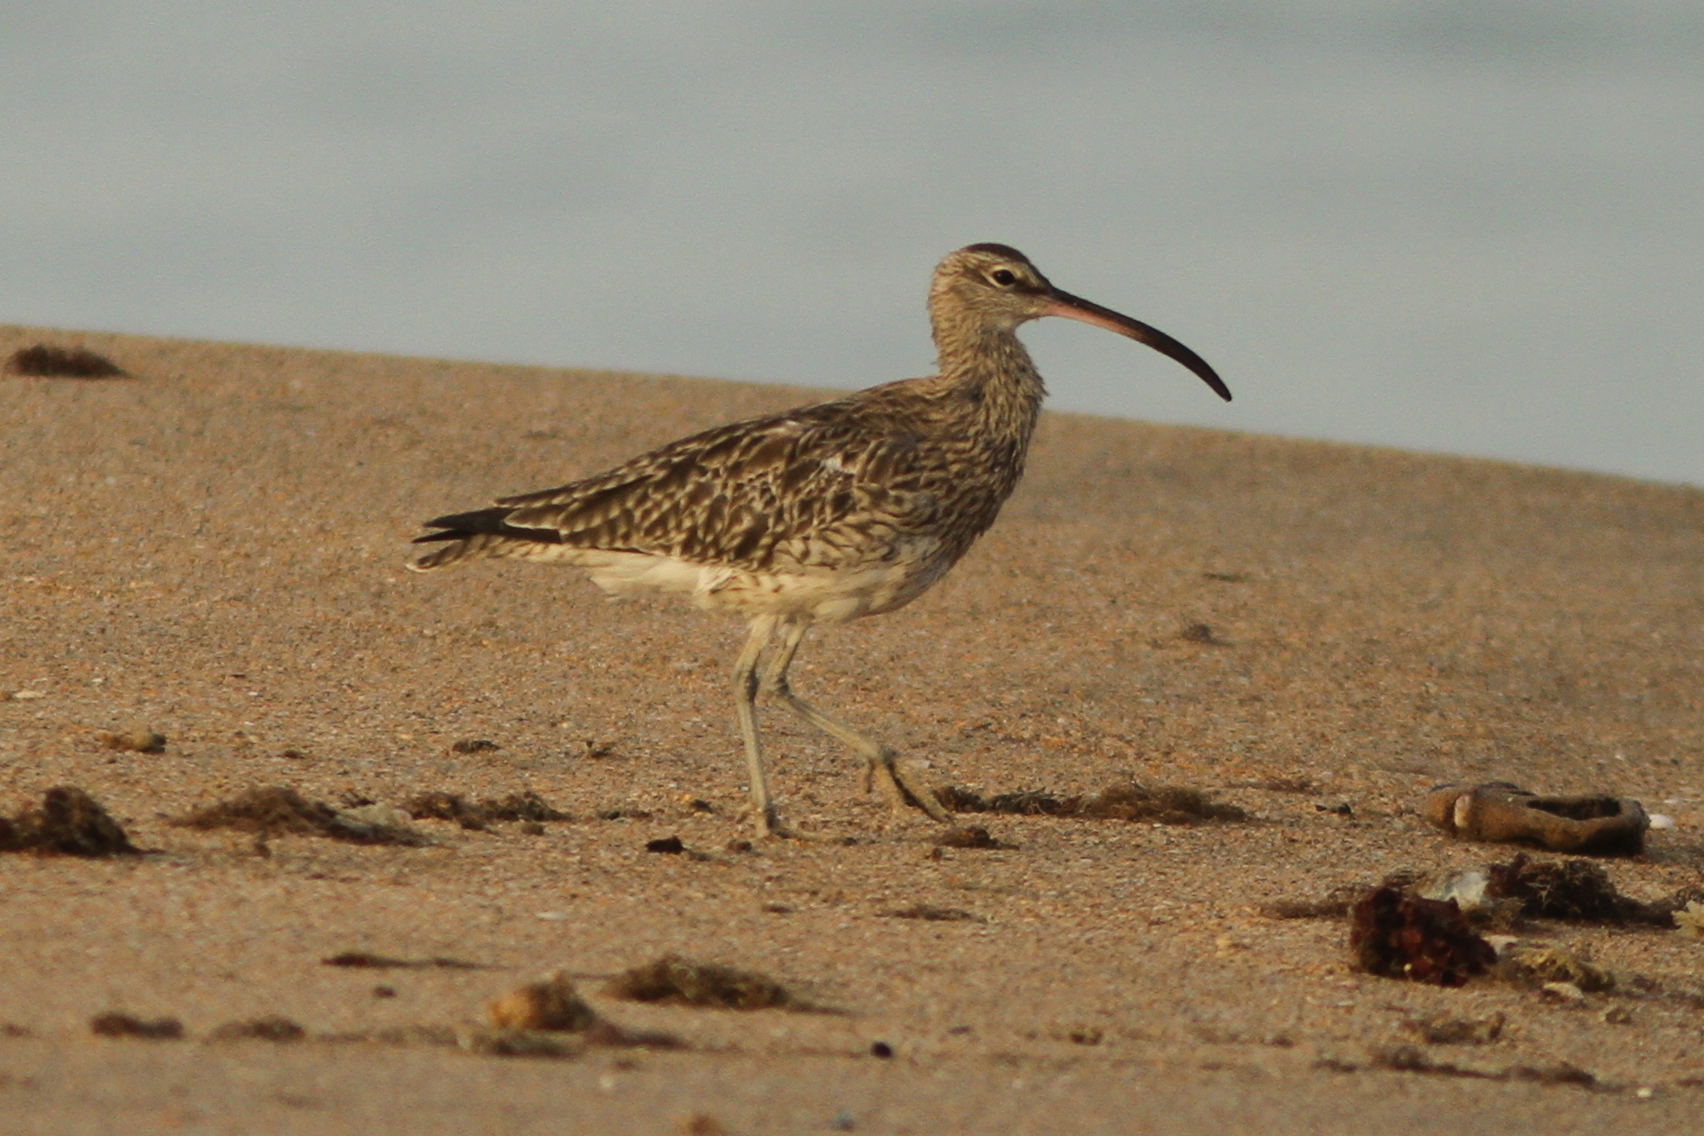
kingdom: Animalia
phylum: Chordata
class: Aves
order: Charadriiformes
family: Scolopacidae
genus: Numenius
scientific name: Numenius phaeopus
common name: Whimbrel
